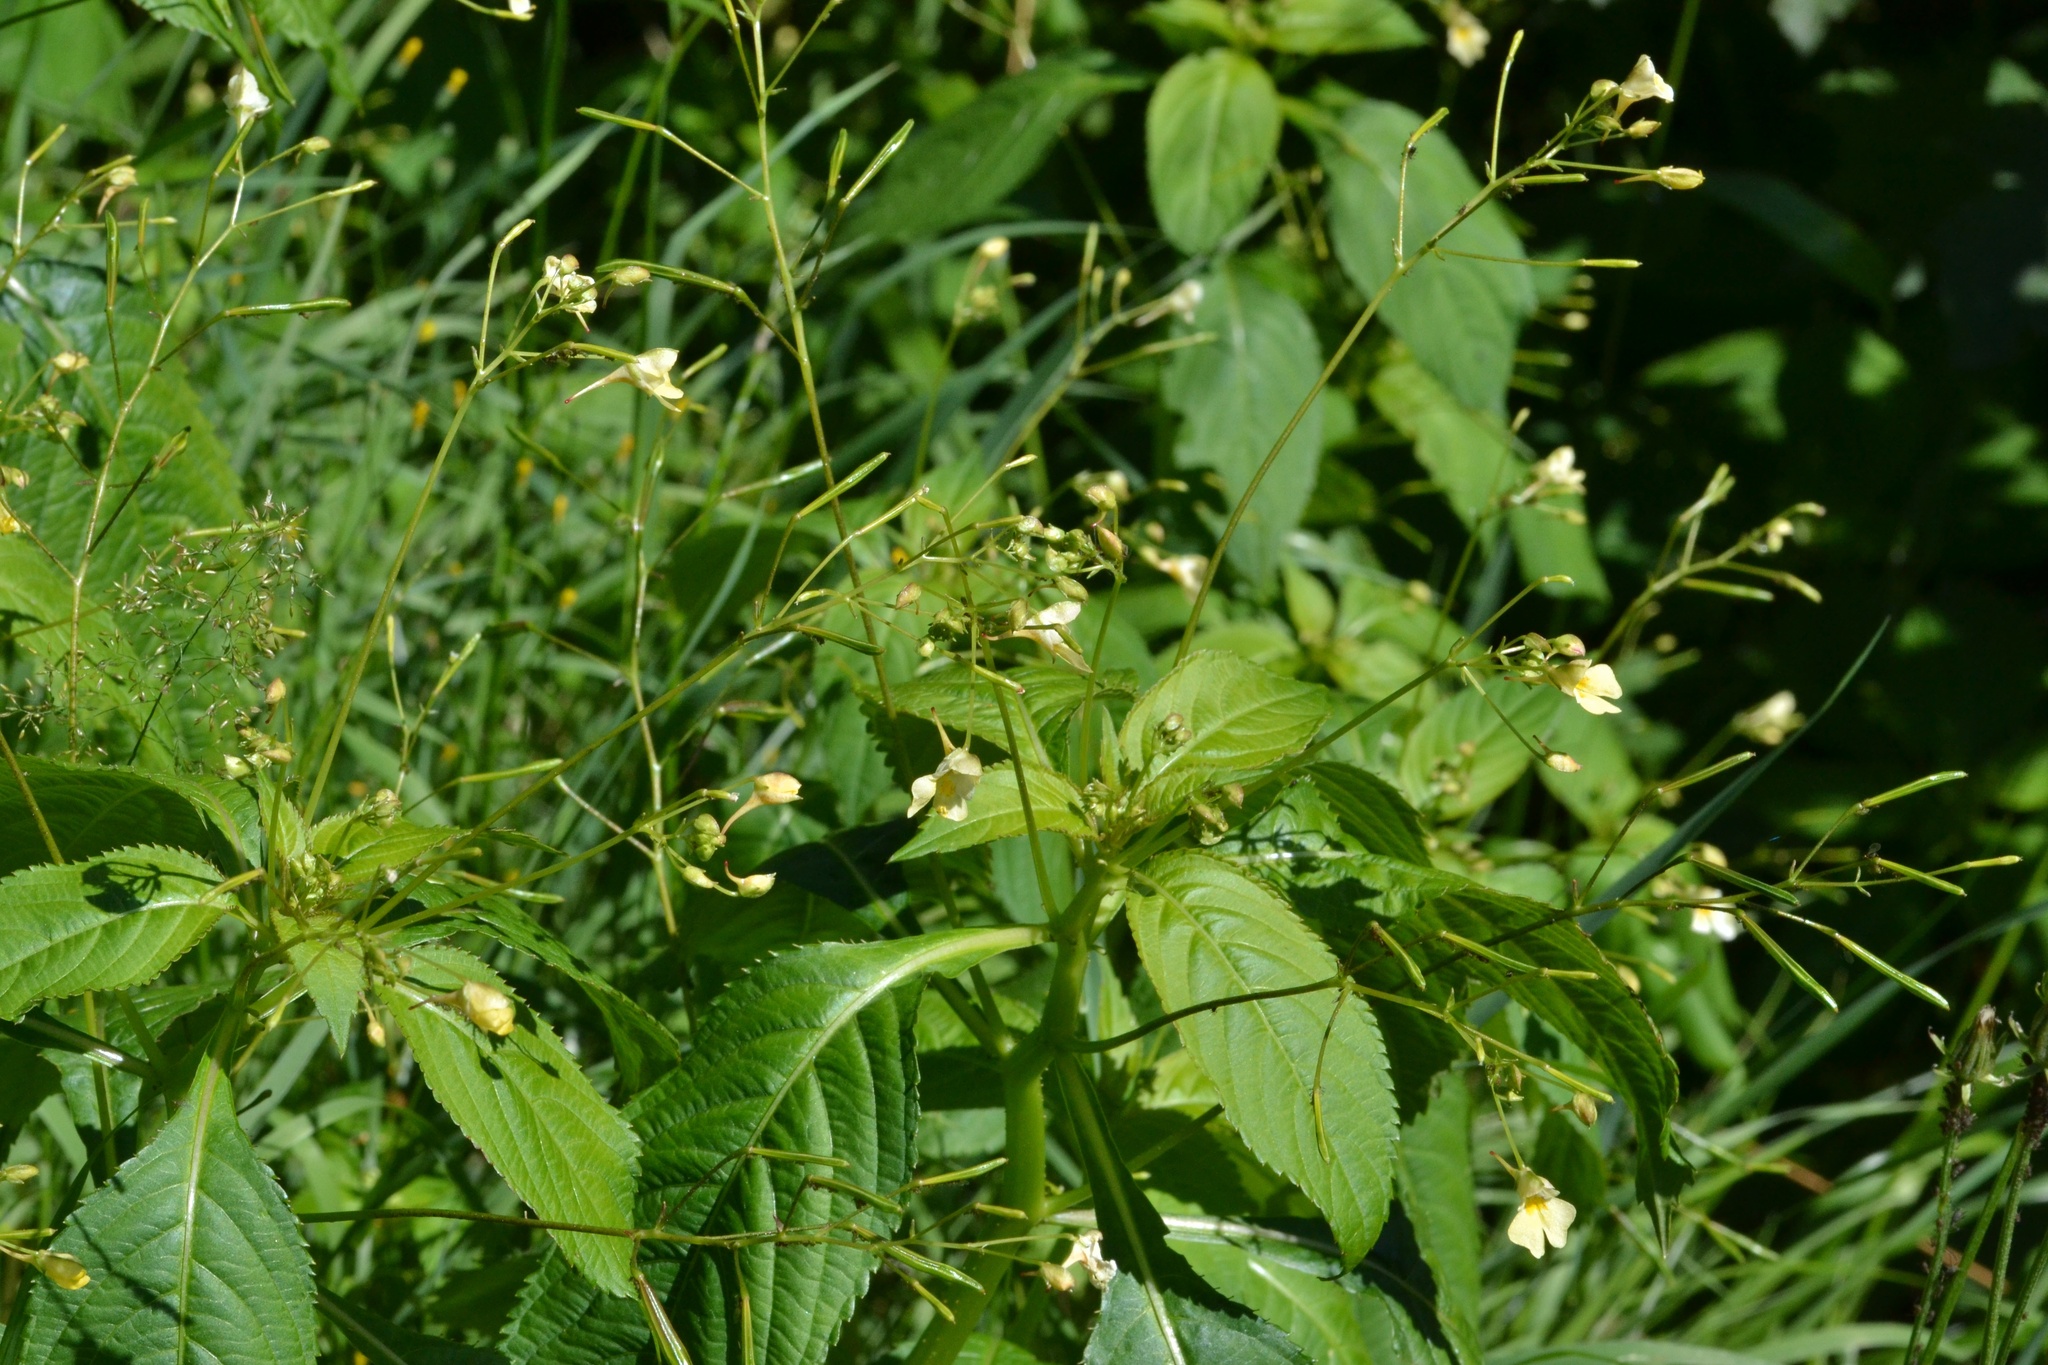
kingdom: Plantae
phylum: Tracheophyta
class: Magnoliopsida
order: Ericales
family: Balsaminaceae
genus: Impatiens
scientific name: Impatiens parviflora
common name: Small balsam
